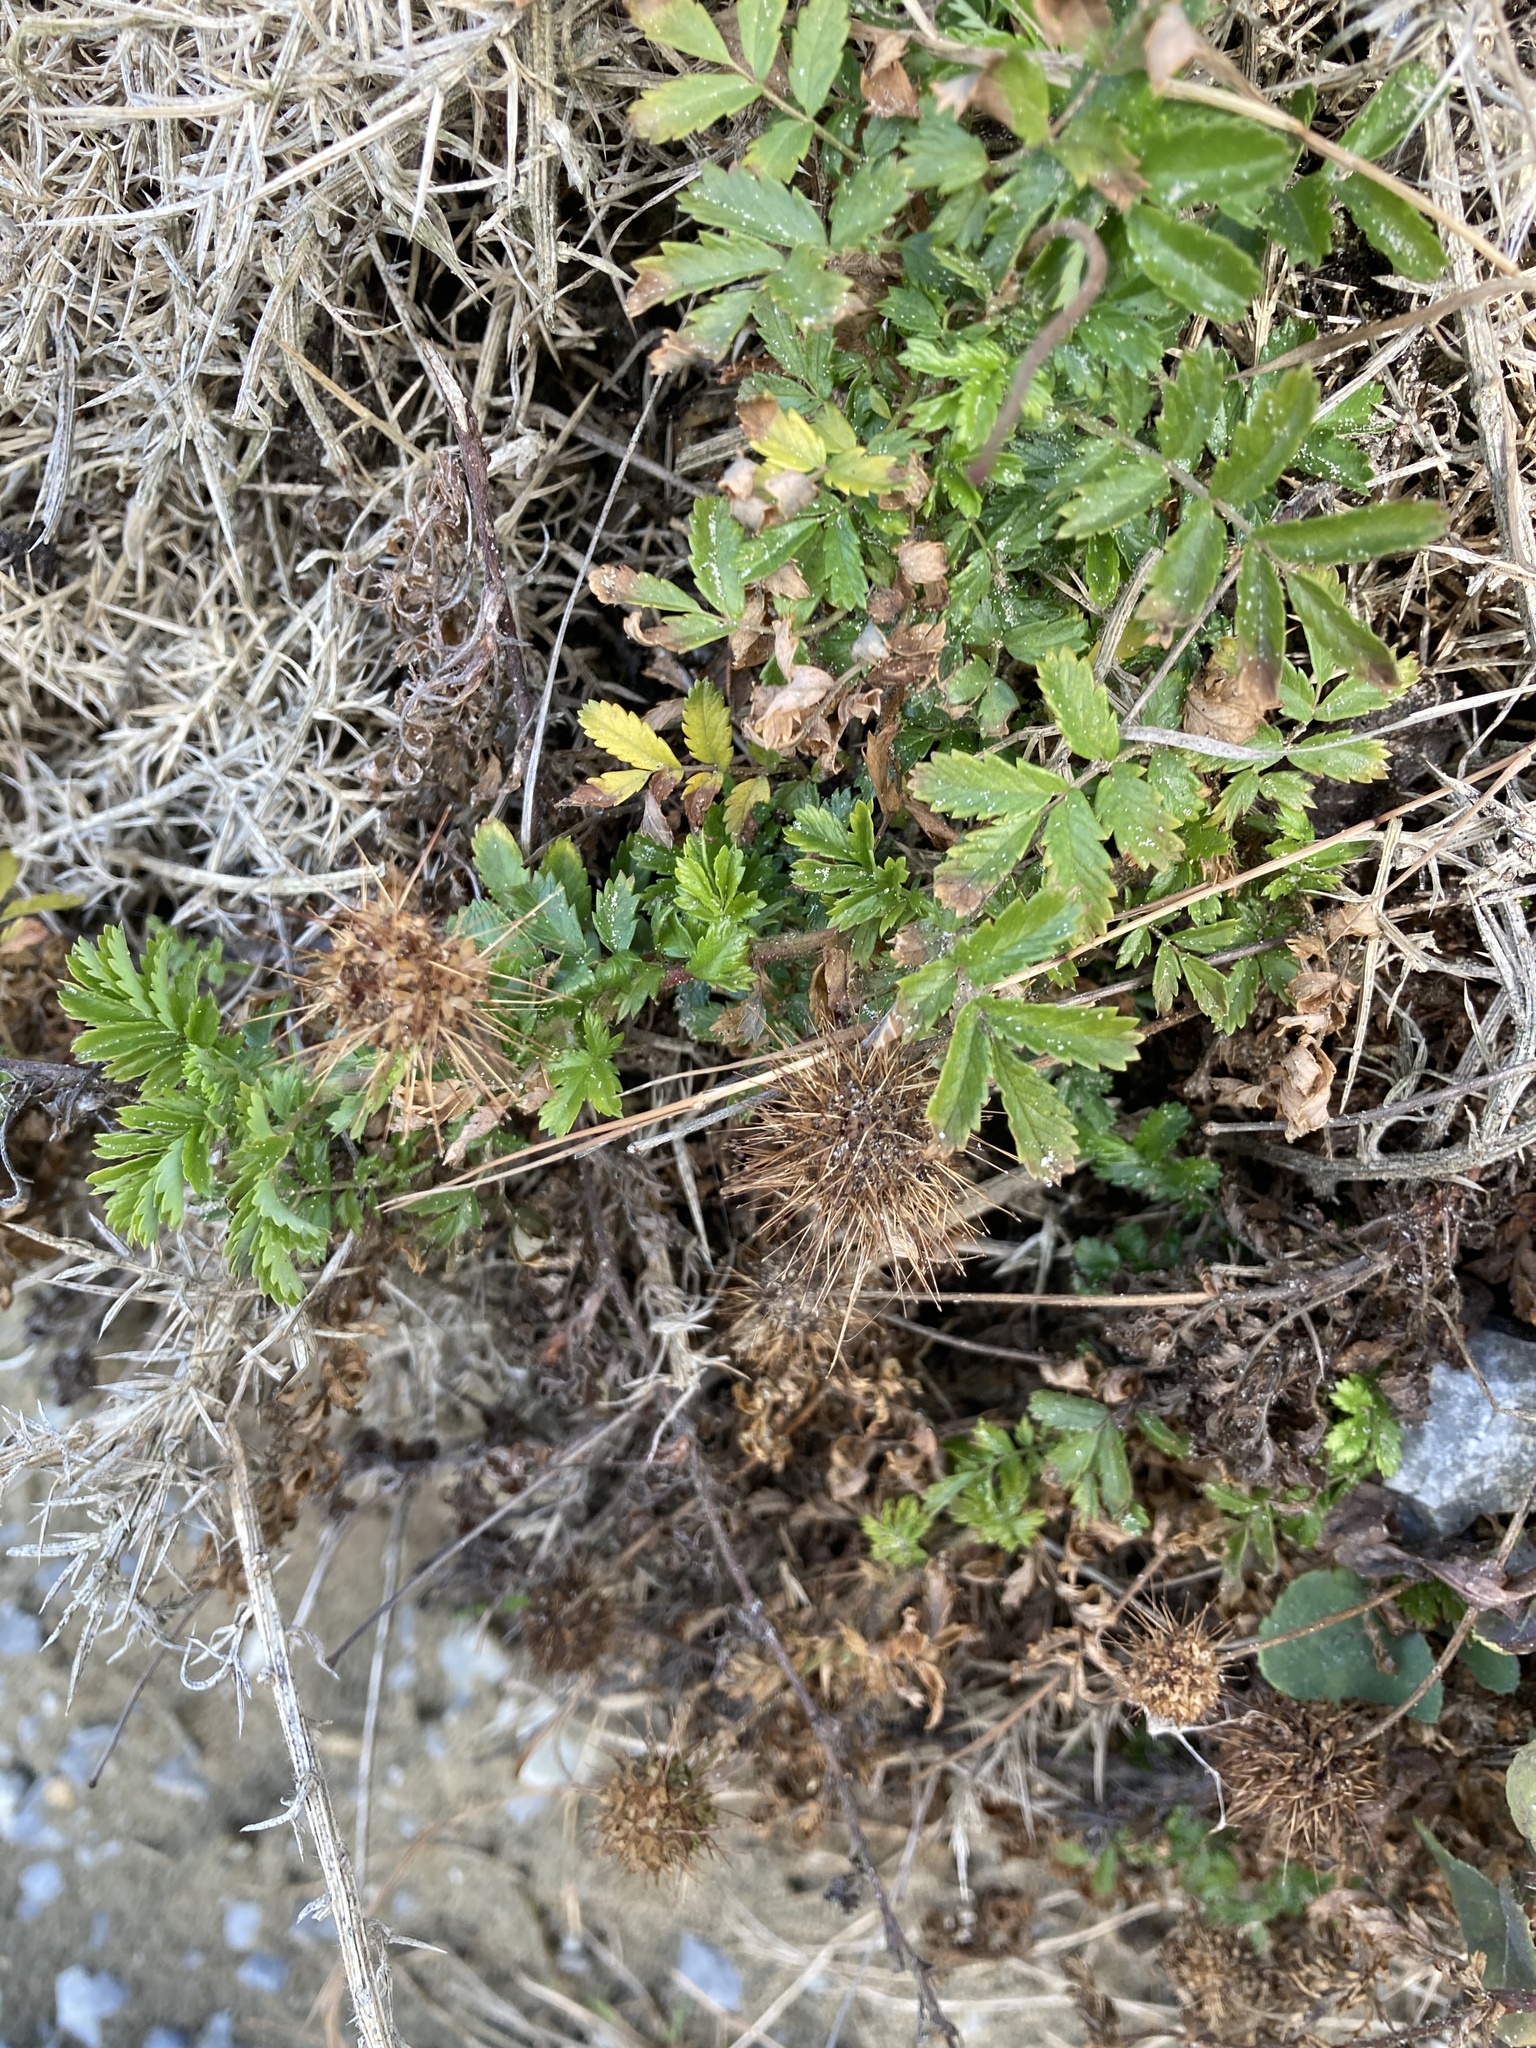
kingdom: Plantae
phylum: Tracheophyta
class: Magnoliopsida
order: Rosales
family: Rosaceae
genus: Acaena
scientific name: Acaena novae-zelandiae
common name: Pirri-pirri-bur
